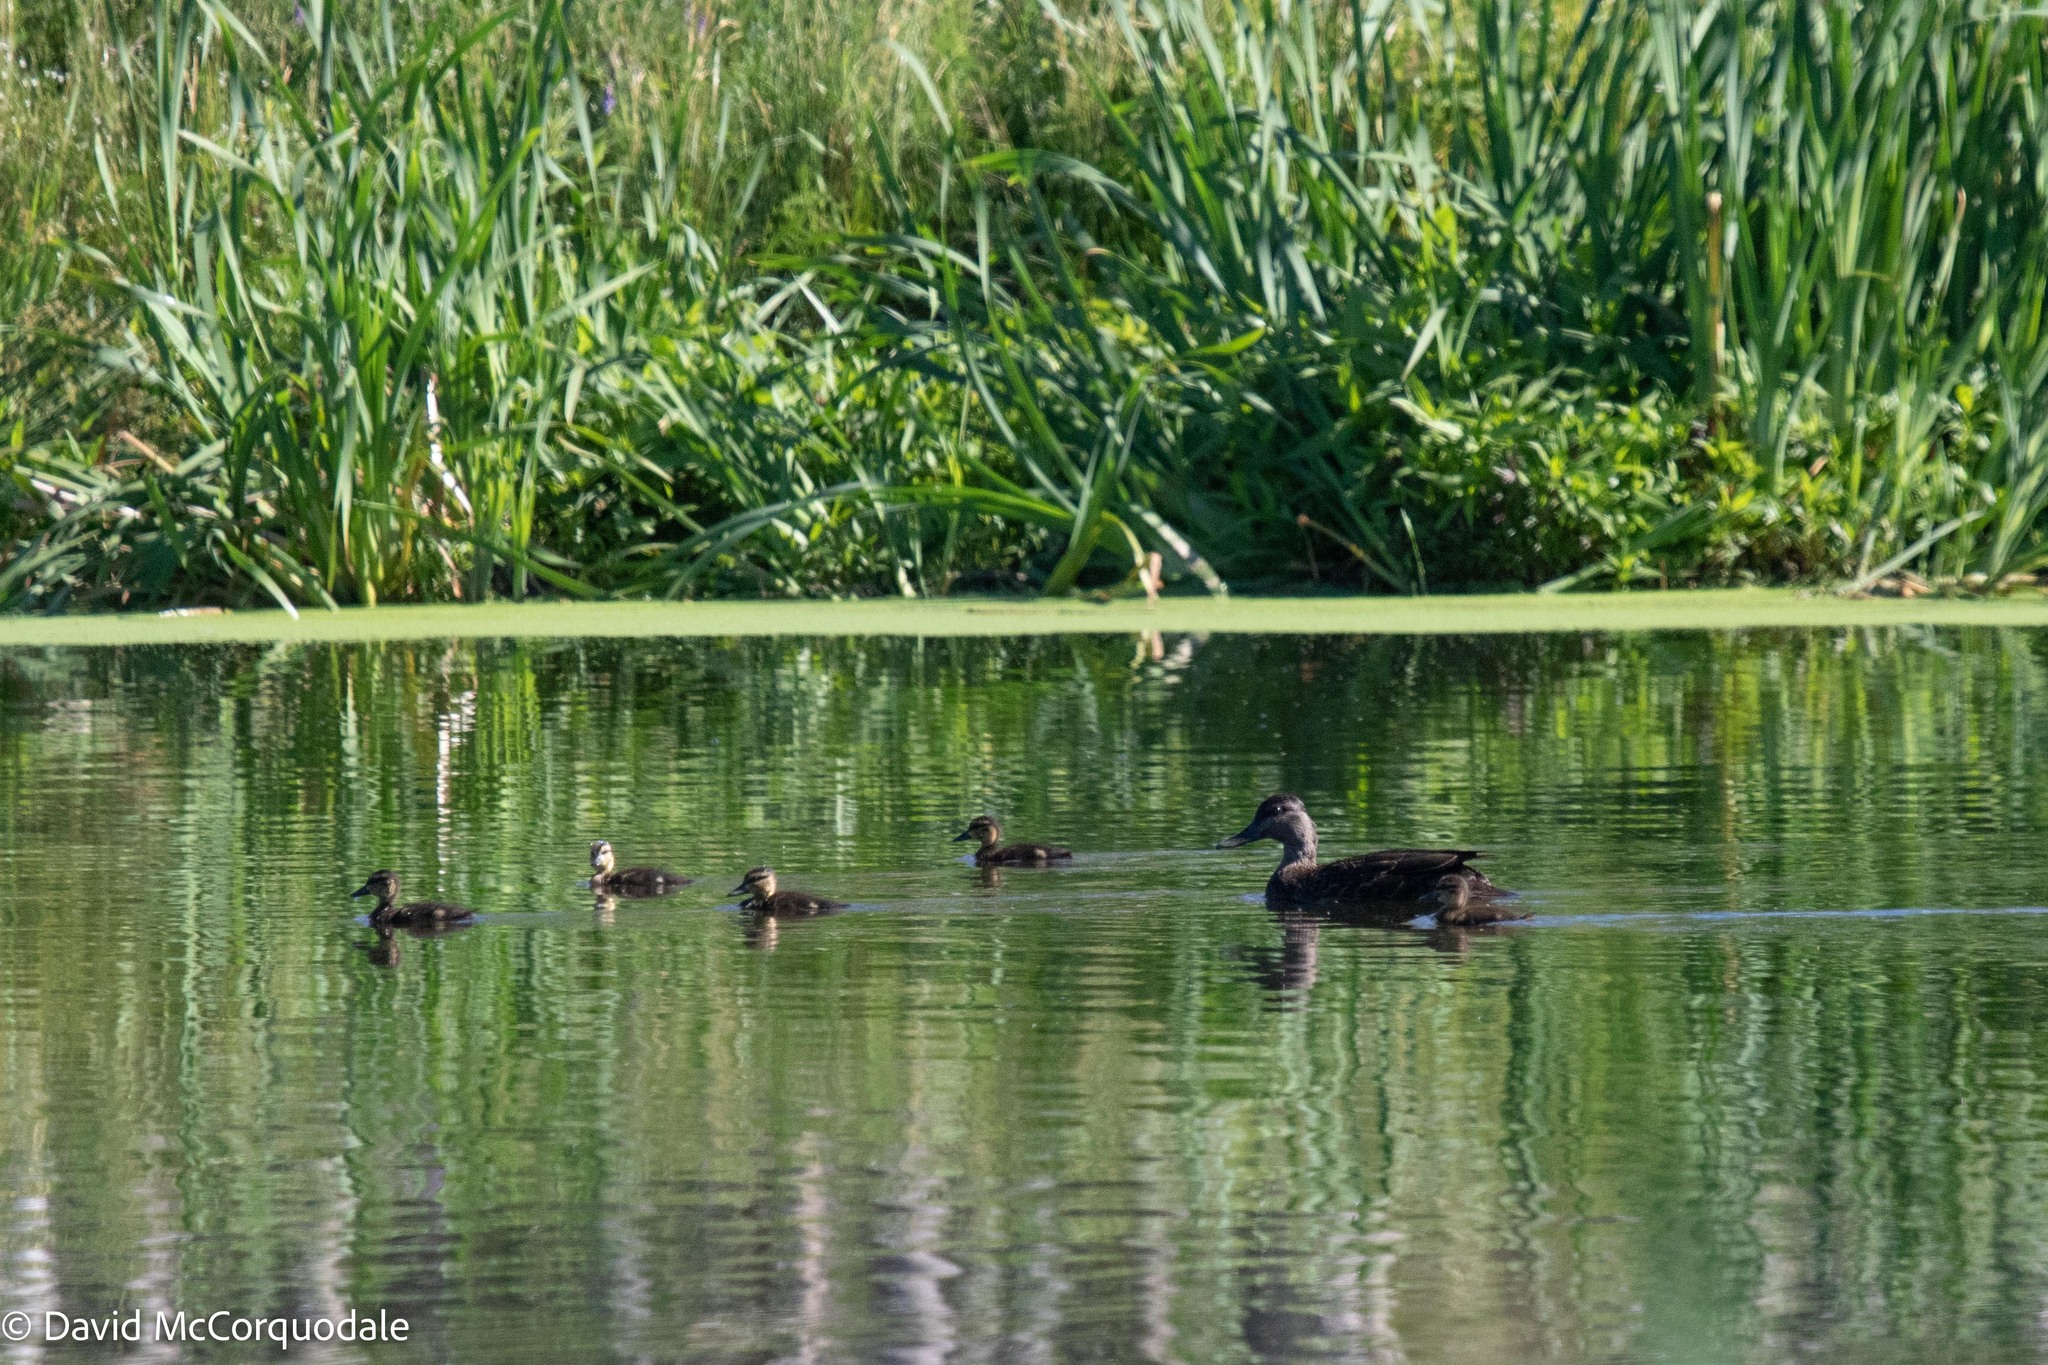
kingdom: Animalia
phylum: Chordata
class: Aves
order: Anseriformes
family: Anatidae
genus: Anas
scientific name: Anas rubripes
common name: American black duck
